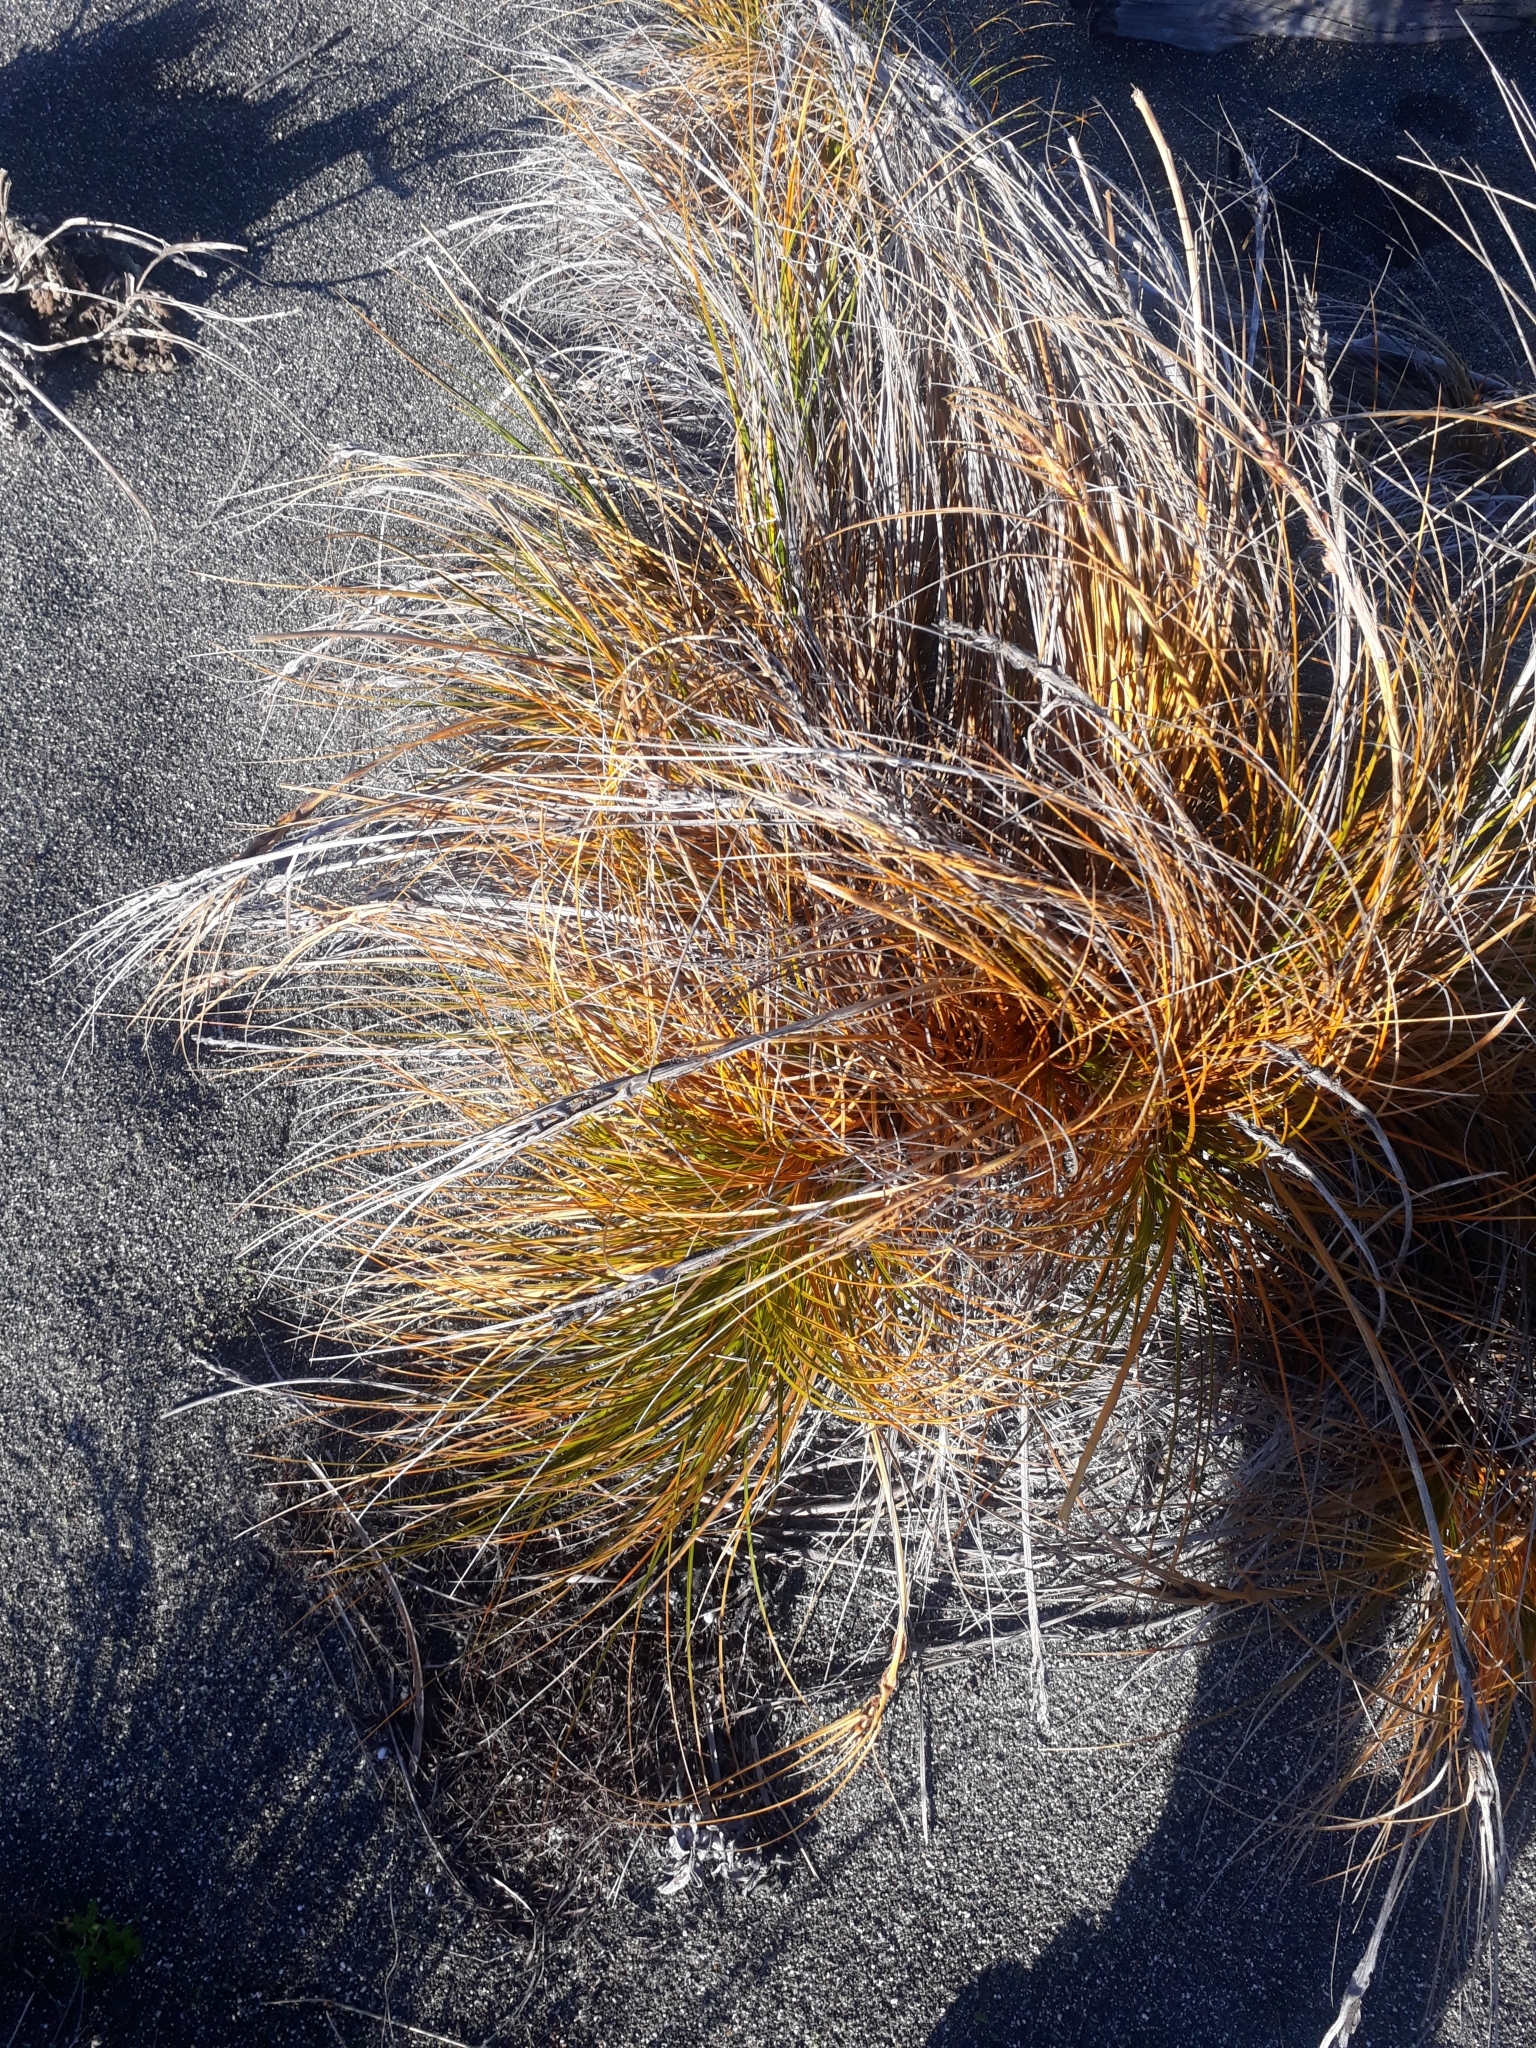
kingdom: Plantae
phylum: Tracheophyta
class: Liliopsida
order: Poales
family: Cyperaceae
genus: Ficinia
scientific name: Ficinia spiralis
